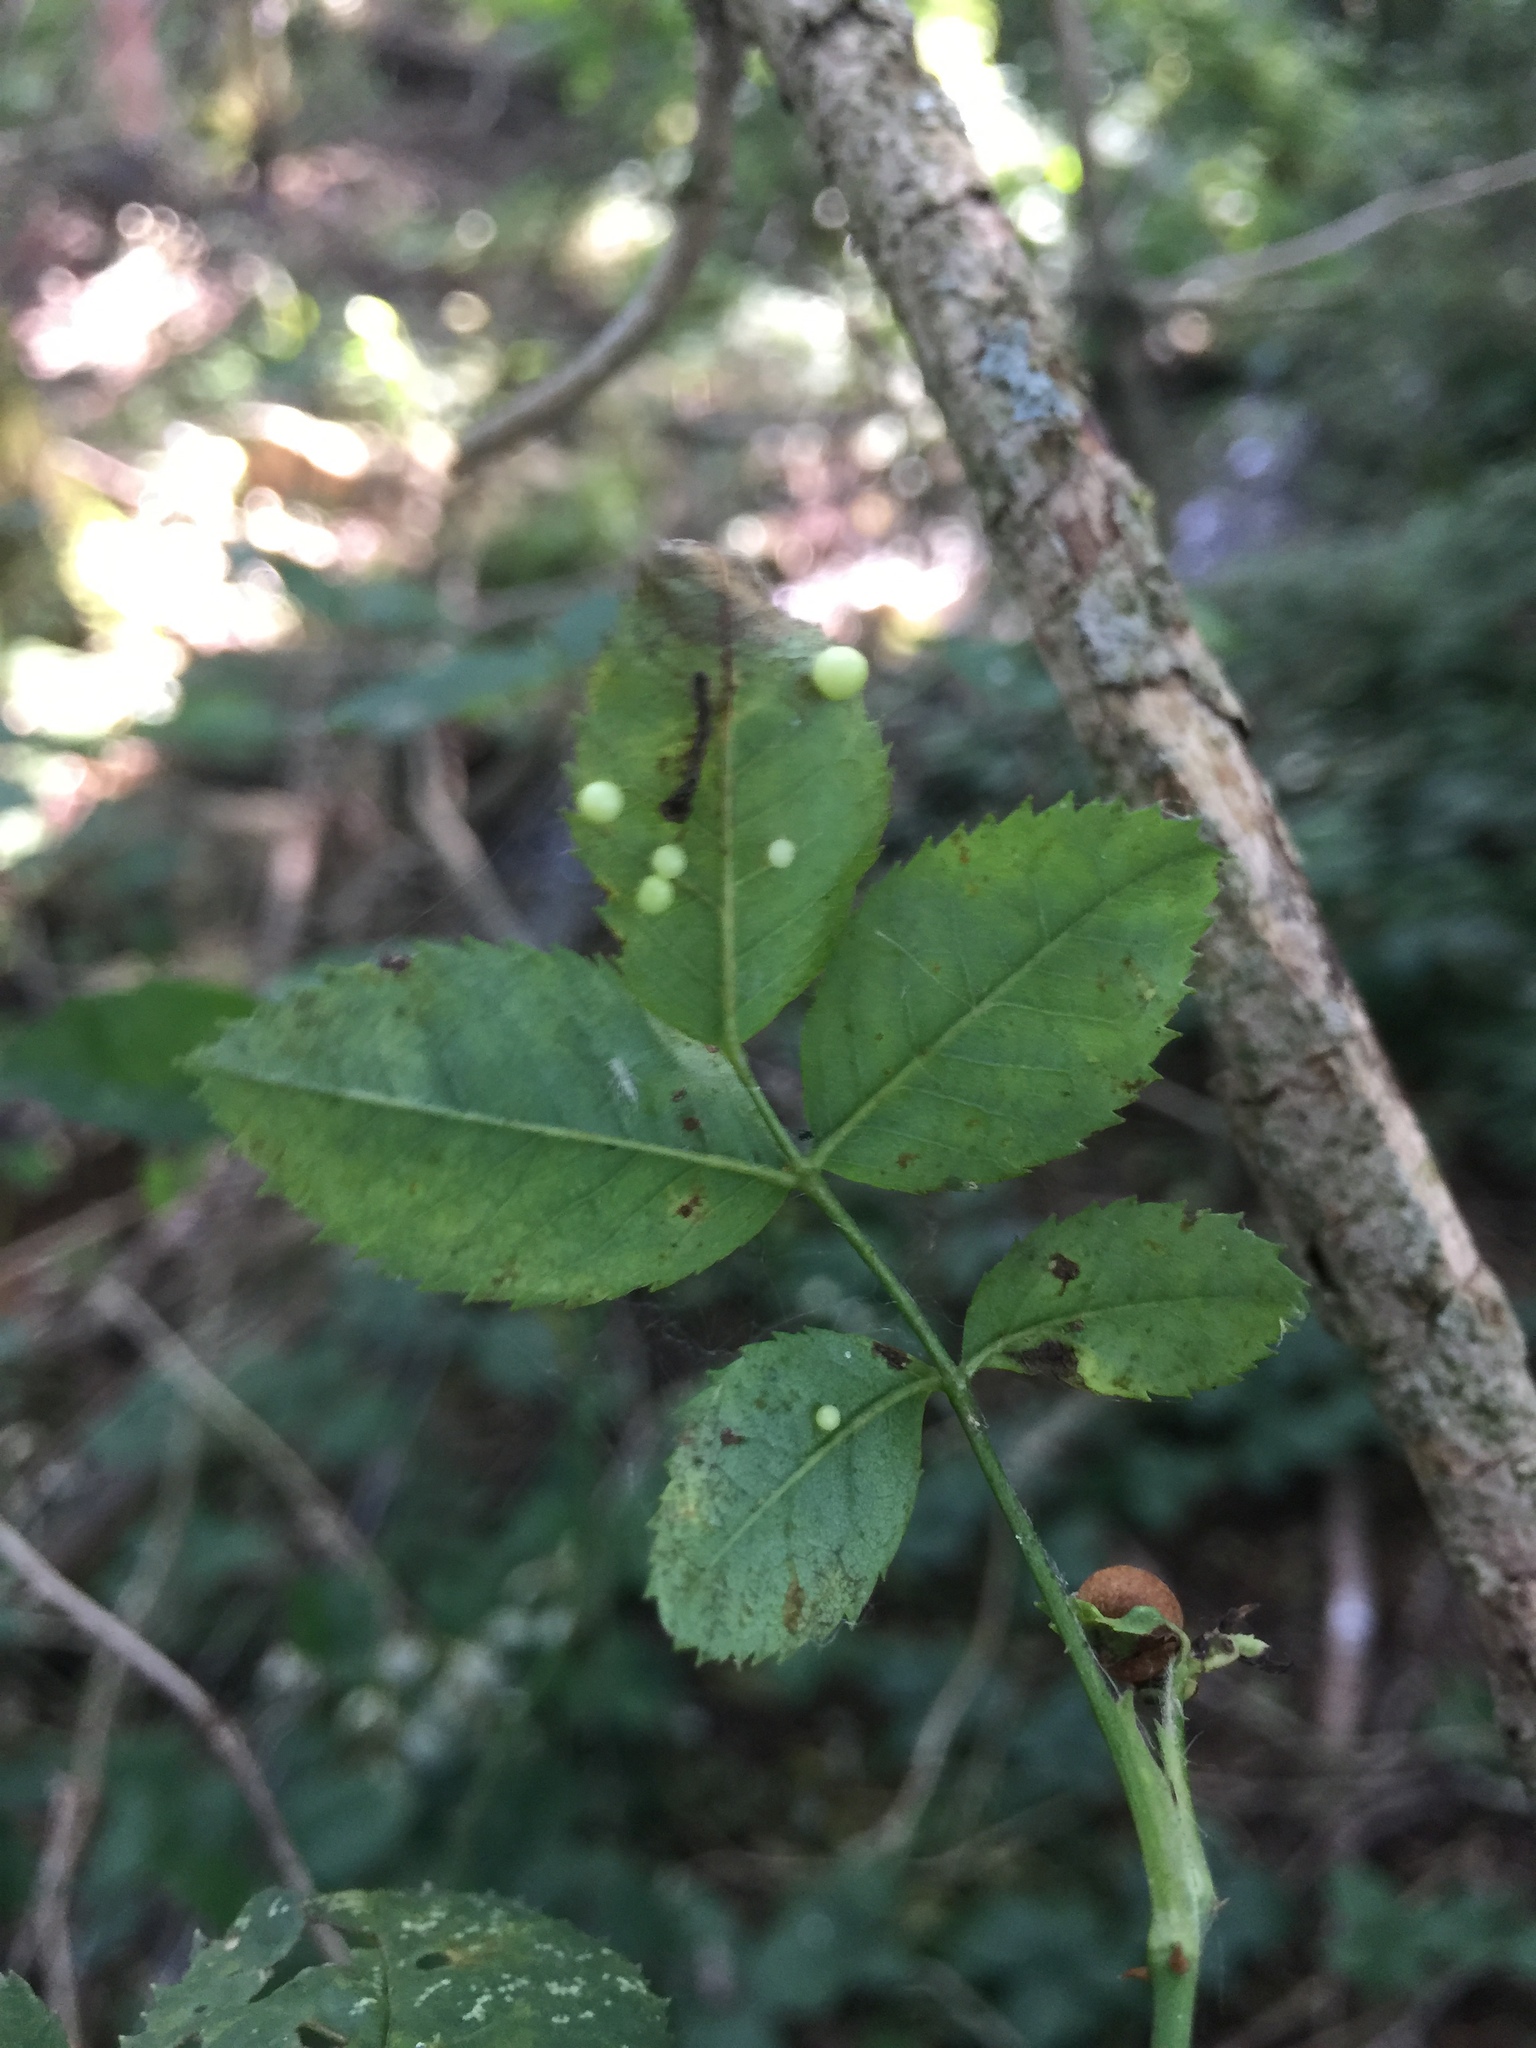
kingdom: Animalia
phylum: Arthropoda
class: Insecta
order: Hymenoptera
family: Cynipidae
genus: Diplolepis
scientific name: Diplolepis eglanteriae
